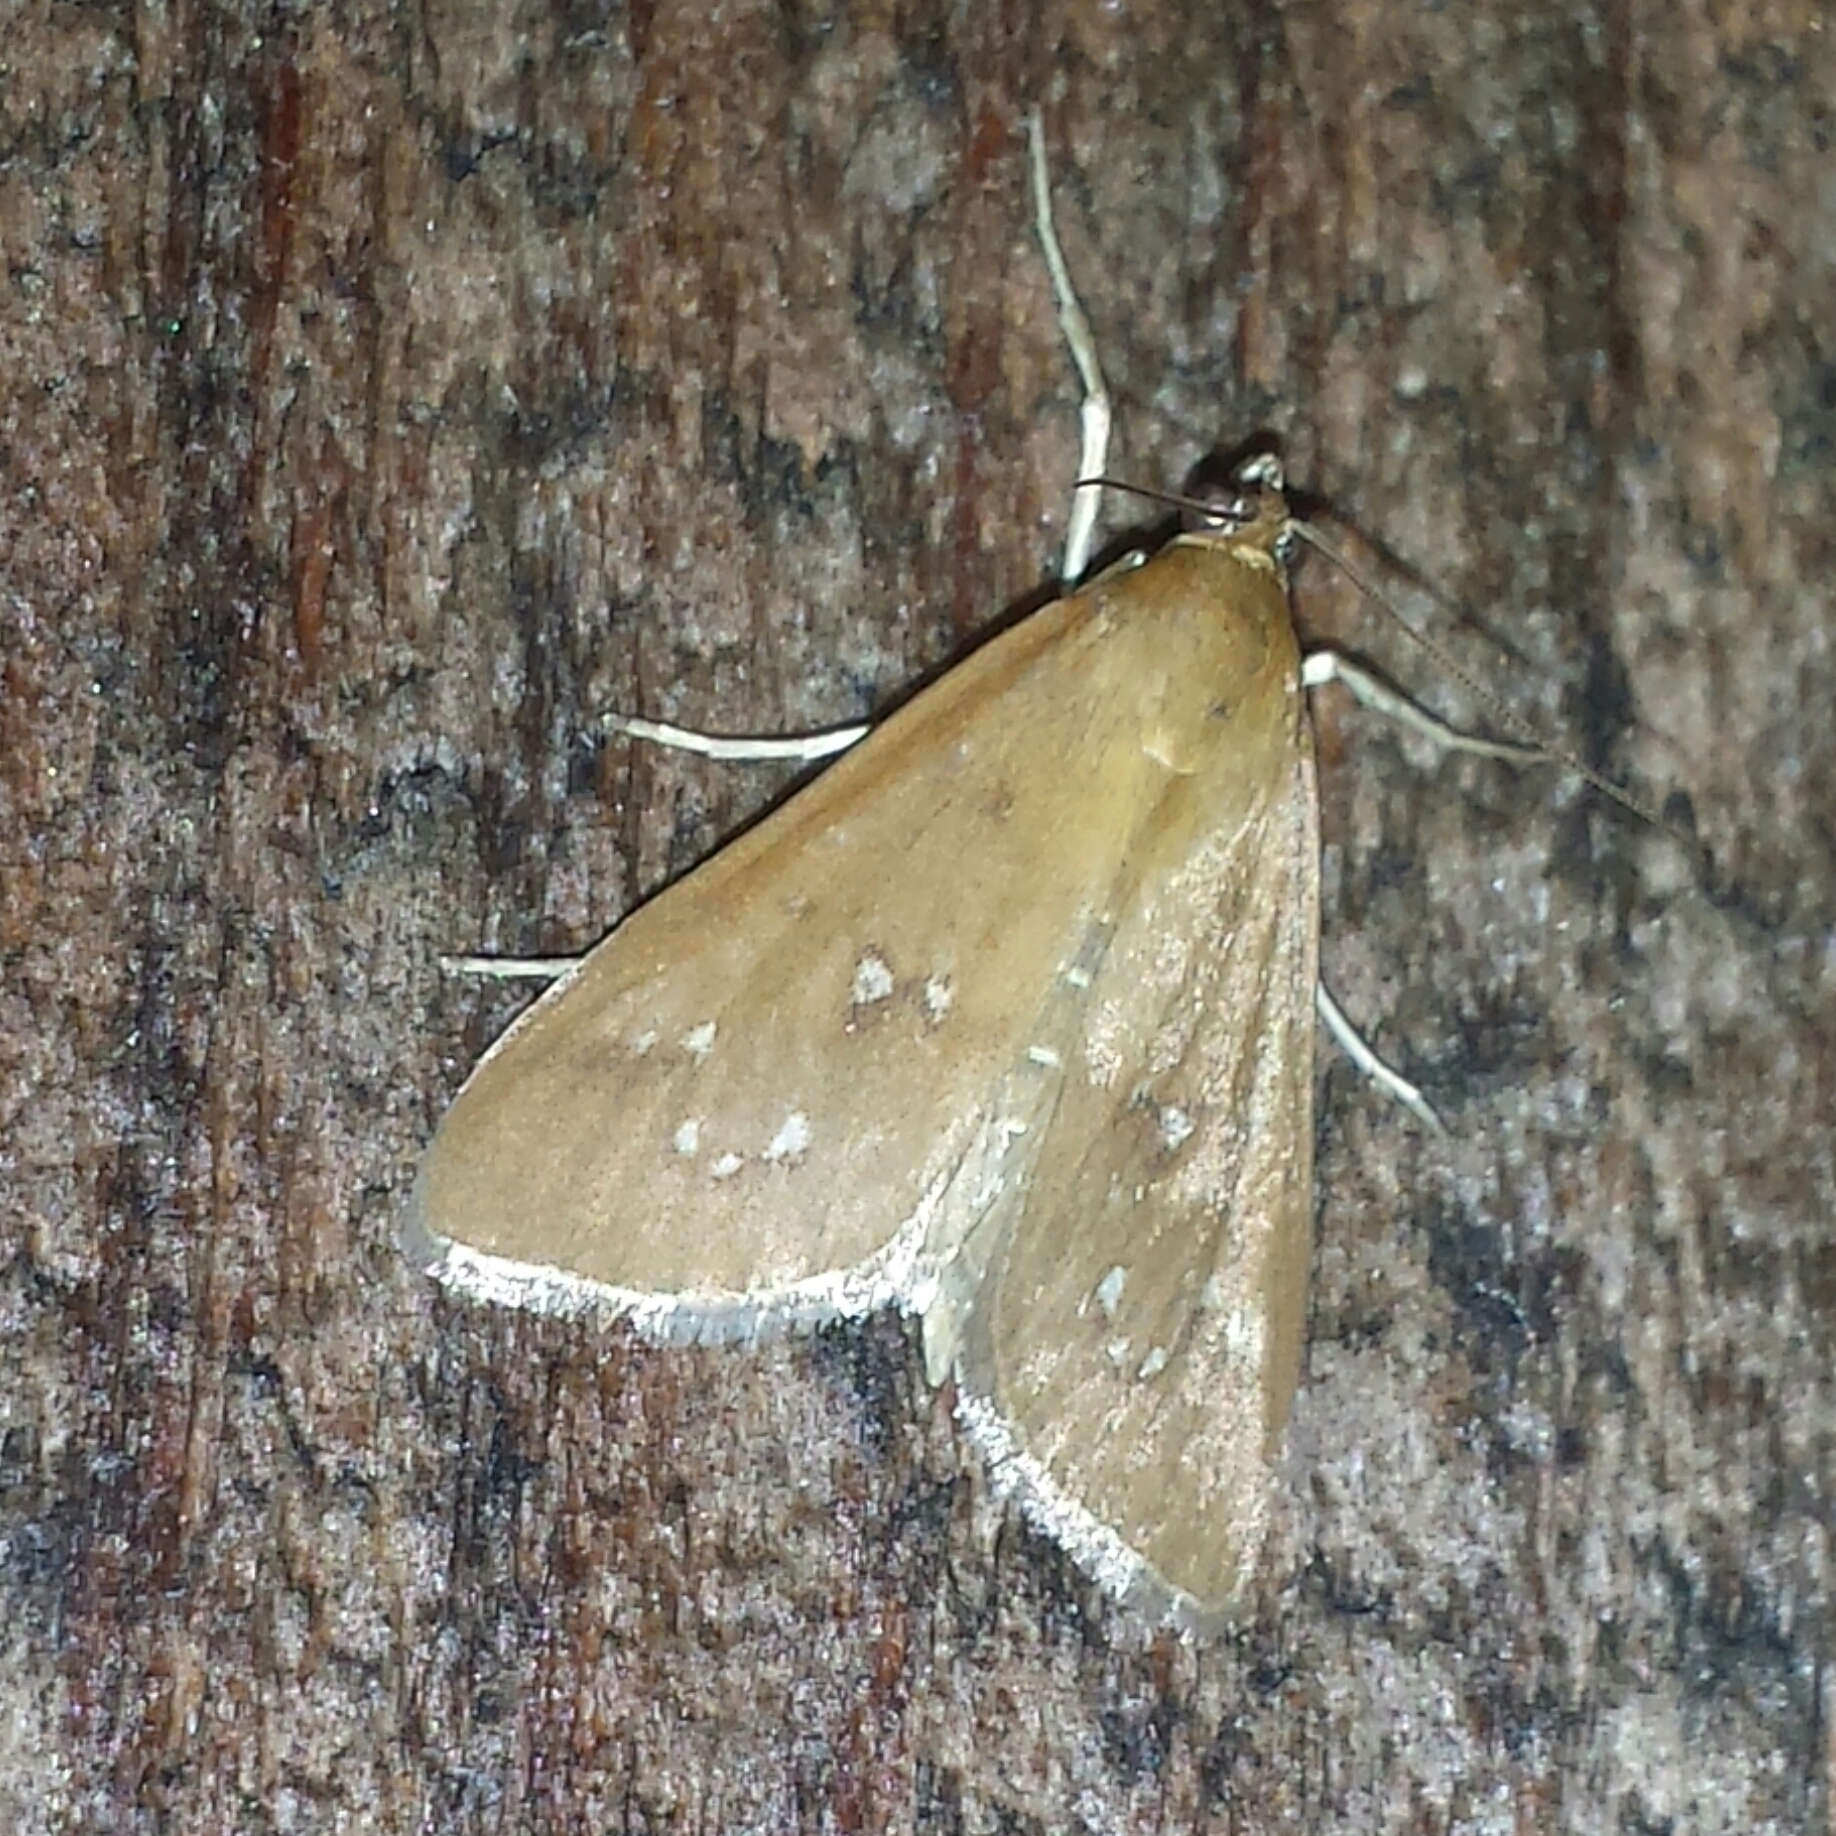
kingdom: Animalia
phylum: Arthropoda
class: Insecta
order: Lepidoptera
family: Crambidae
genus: Diastictis
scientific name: Diastictis ventralis
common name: White-spotted brown
